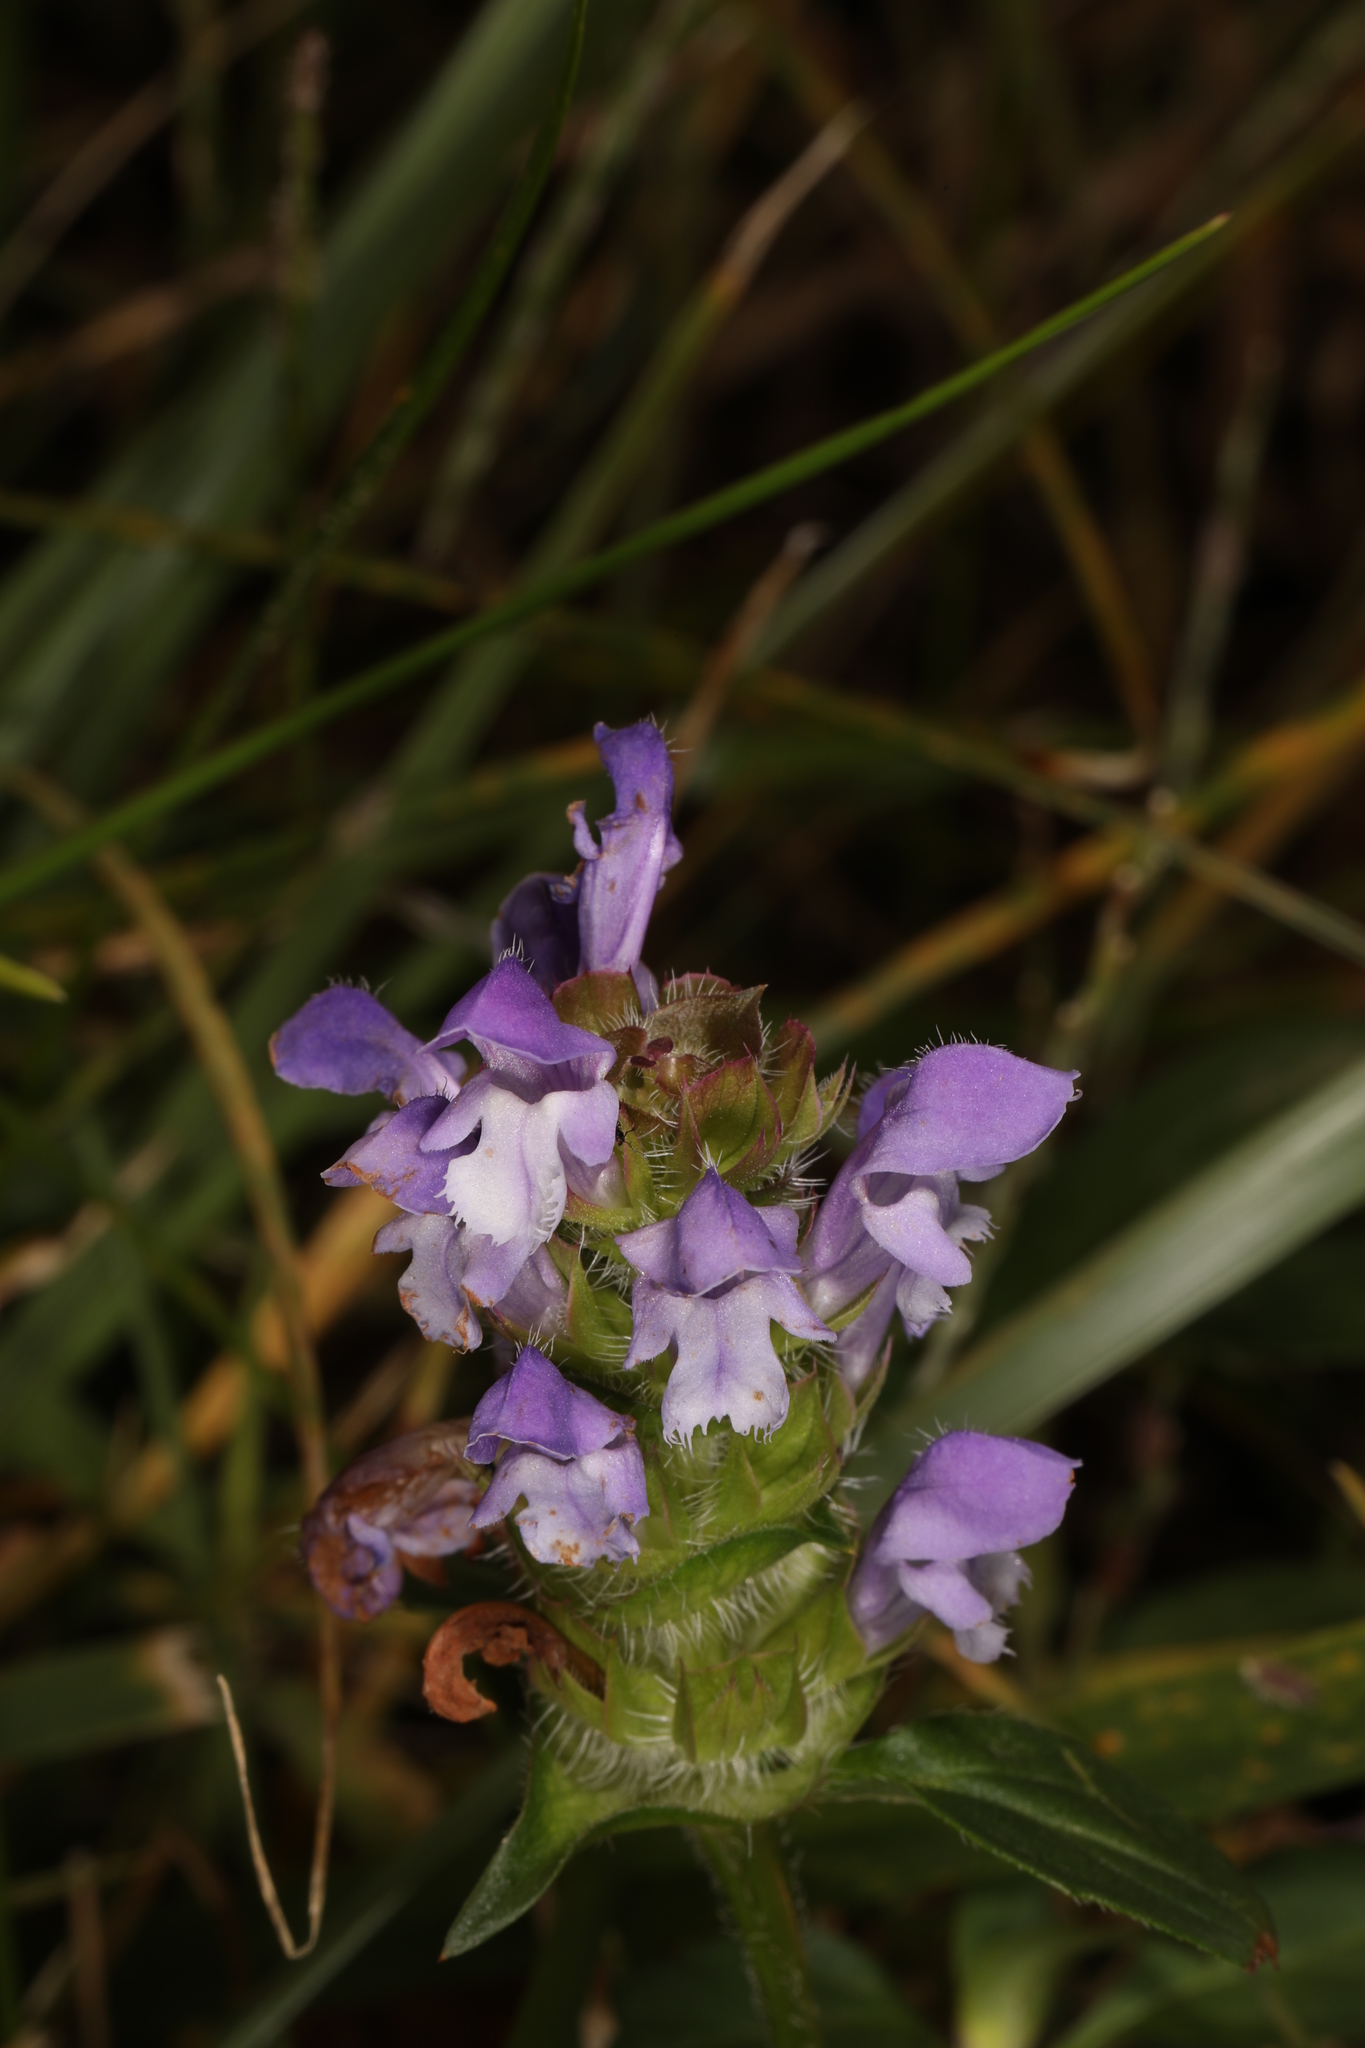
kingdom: Plantae
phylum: Tracheophyta
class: Magnoliopsida
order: Lamiales
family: Lamiaceae
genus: Prunella
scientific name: Prunella vulgaris
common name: Heal-all
